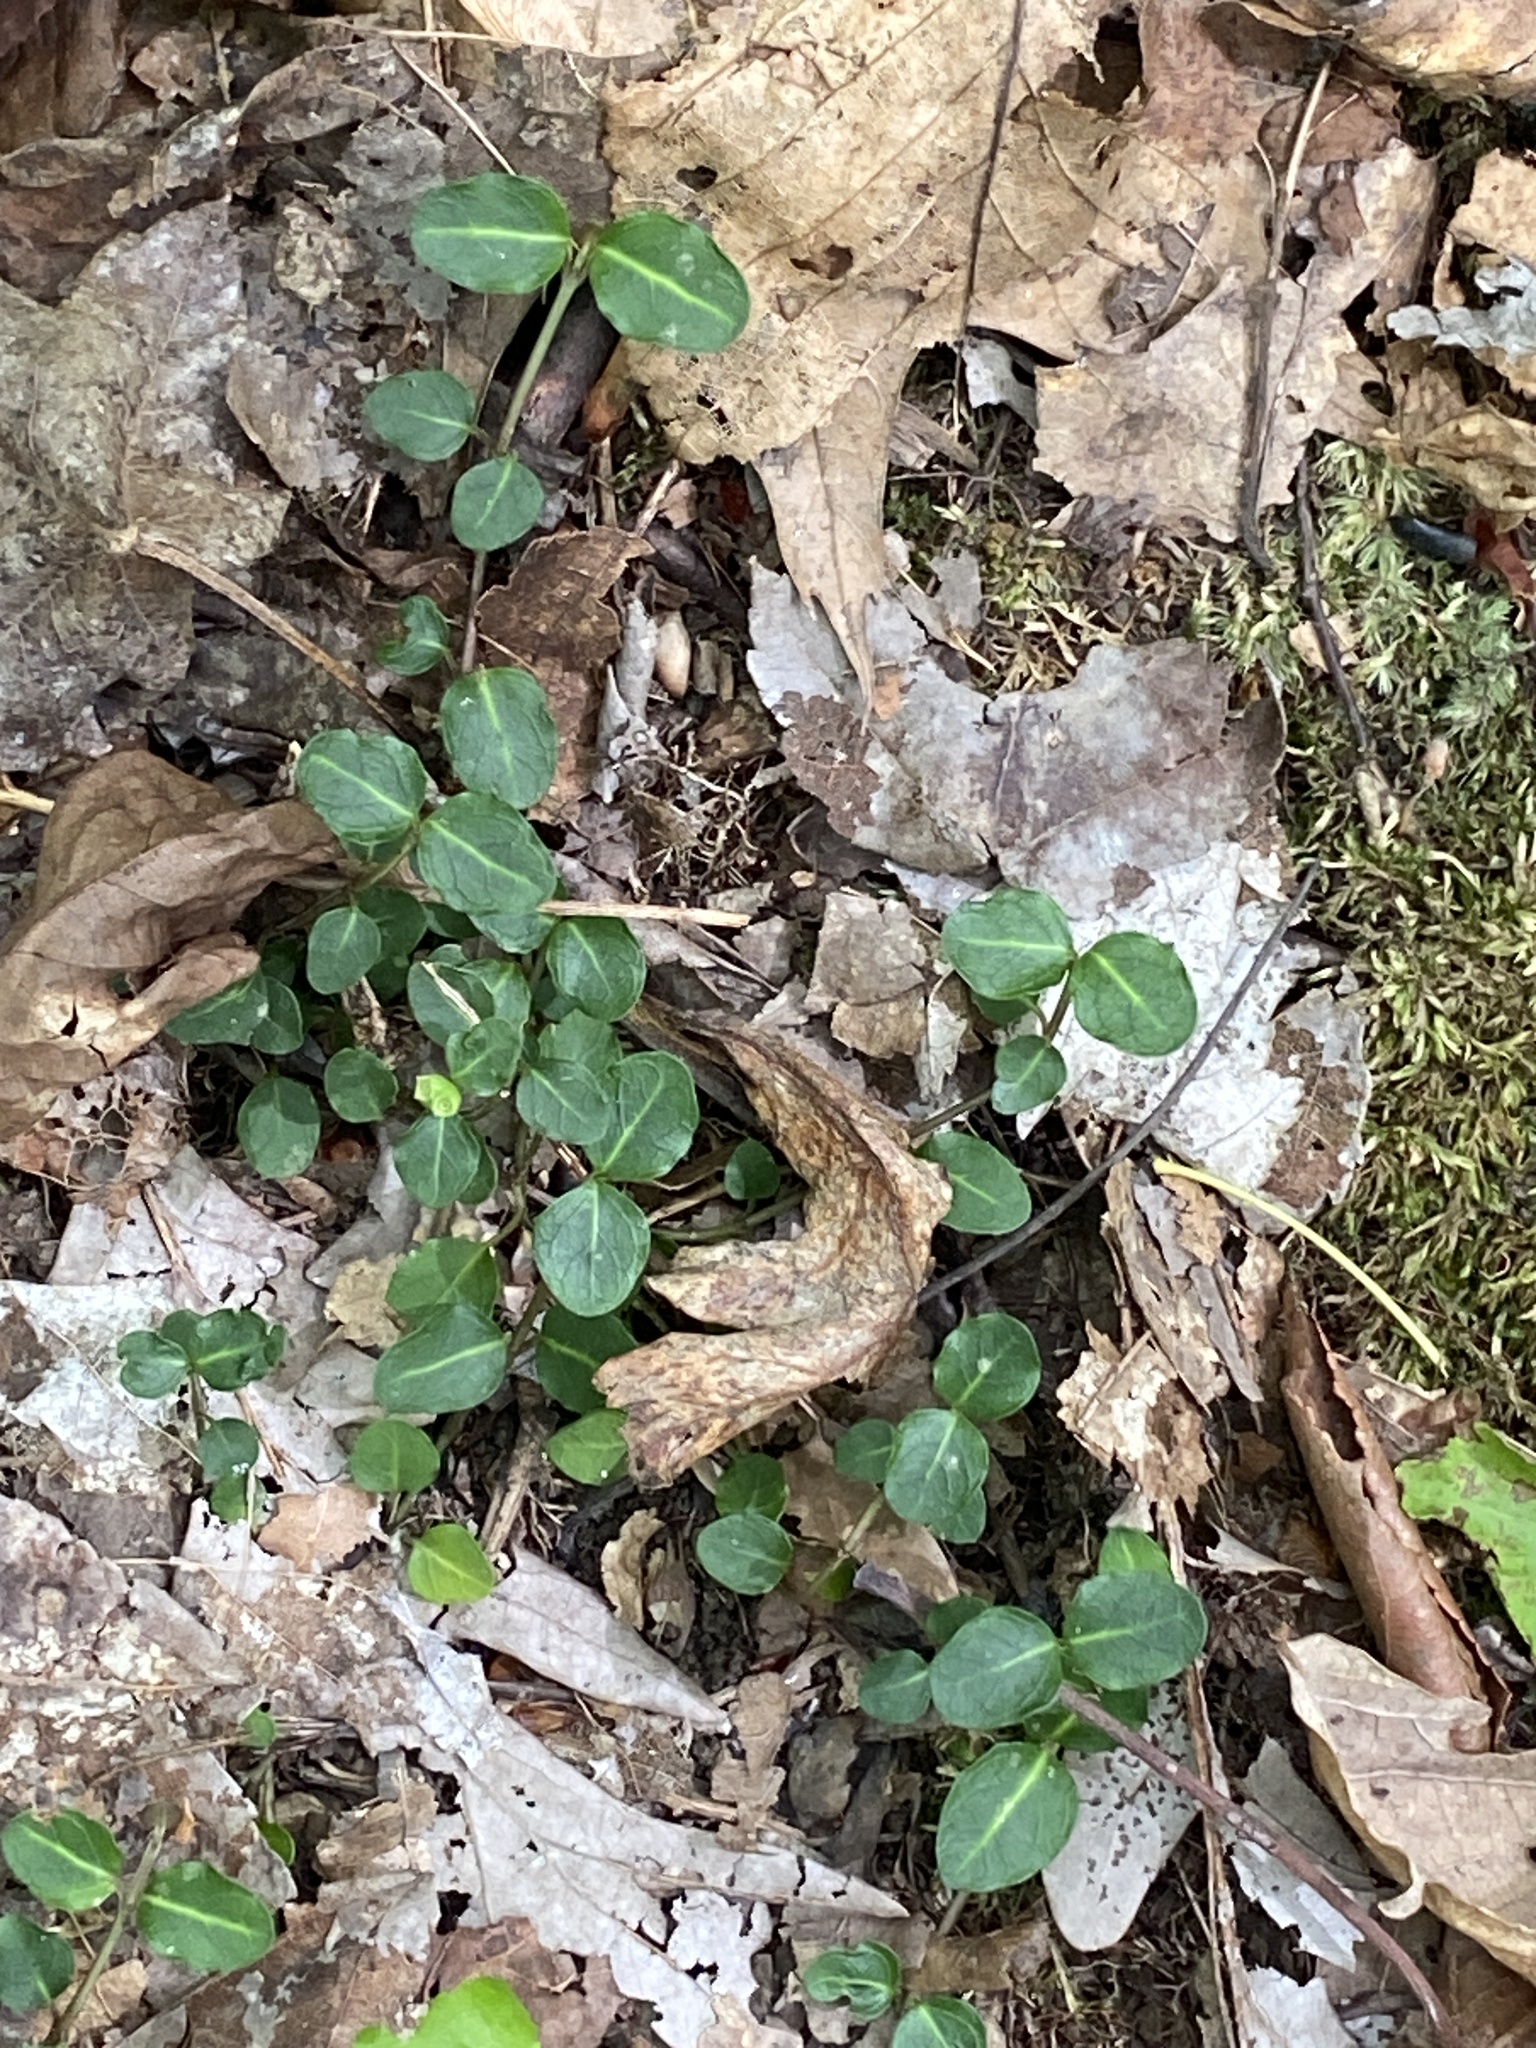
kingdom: Plantae
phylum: Tracheophyta
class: Magnoliopsida
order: Gentianales
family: Rubiaceae
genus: Mitchella
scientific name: Mitchella repens
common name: Partridge-berry
